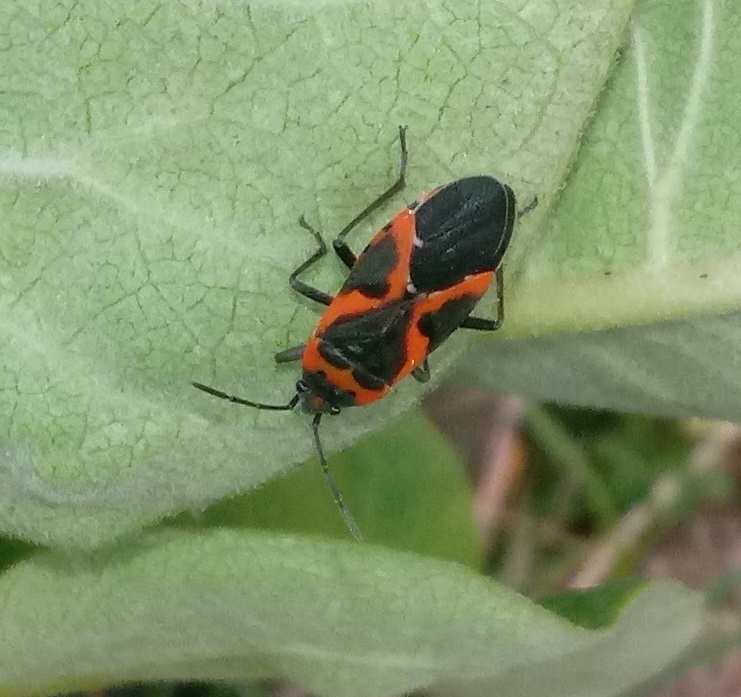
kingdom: Animalia
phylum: Arthropoda
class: Insecta
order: Hemiptera
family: Lygaeidae
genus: Lygaeus
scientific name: Lygaeus kalmii
